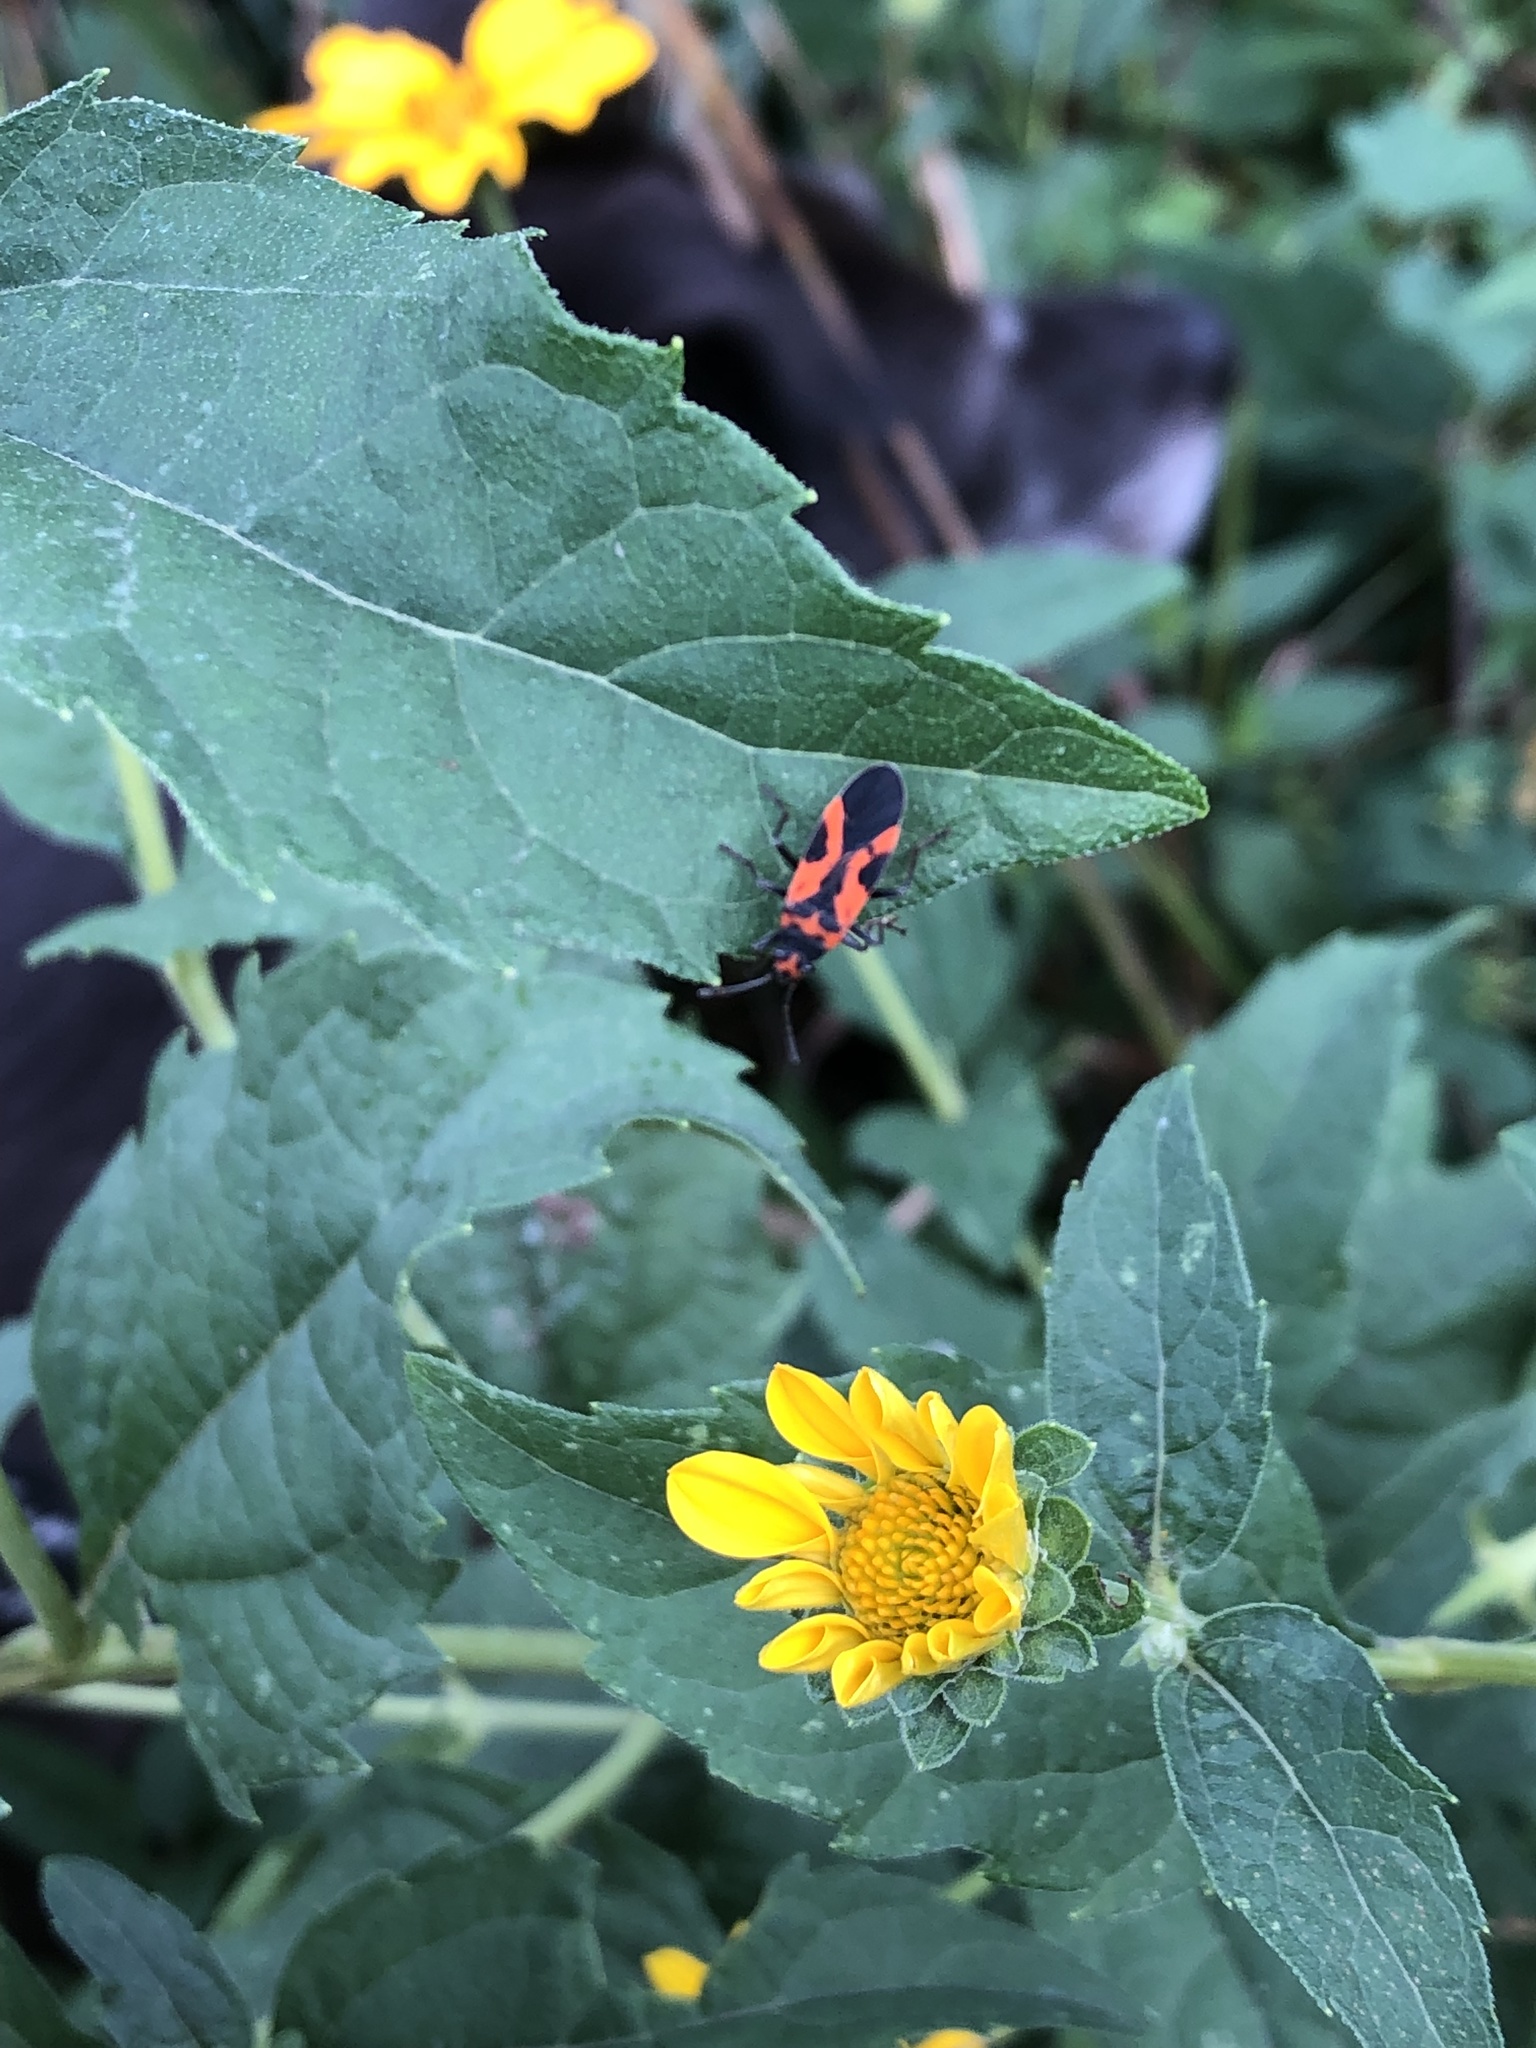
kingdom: Animalia
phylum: Arthropoda
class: Insecta
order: Hemiptera
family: Lygaeidae
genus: Lygaeus
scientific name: Lygaeus turcicus
